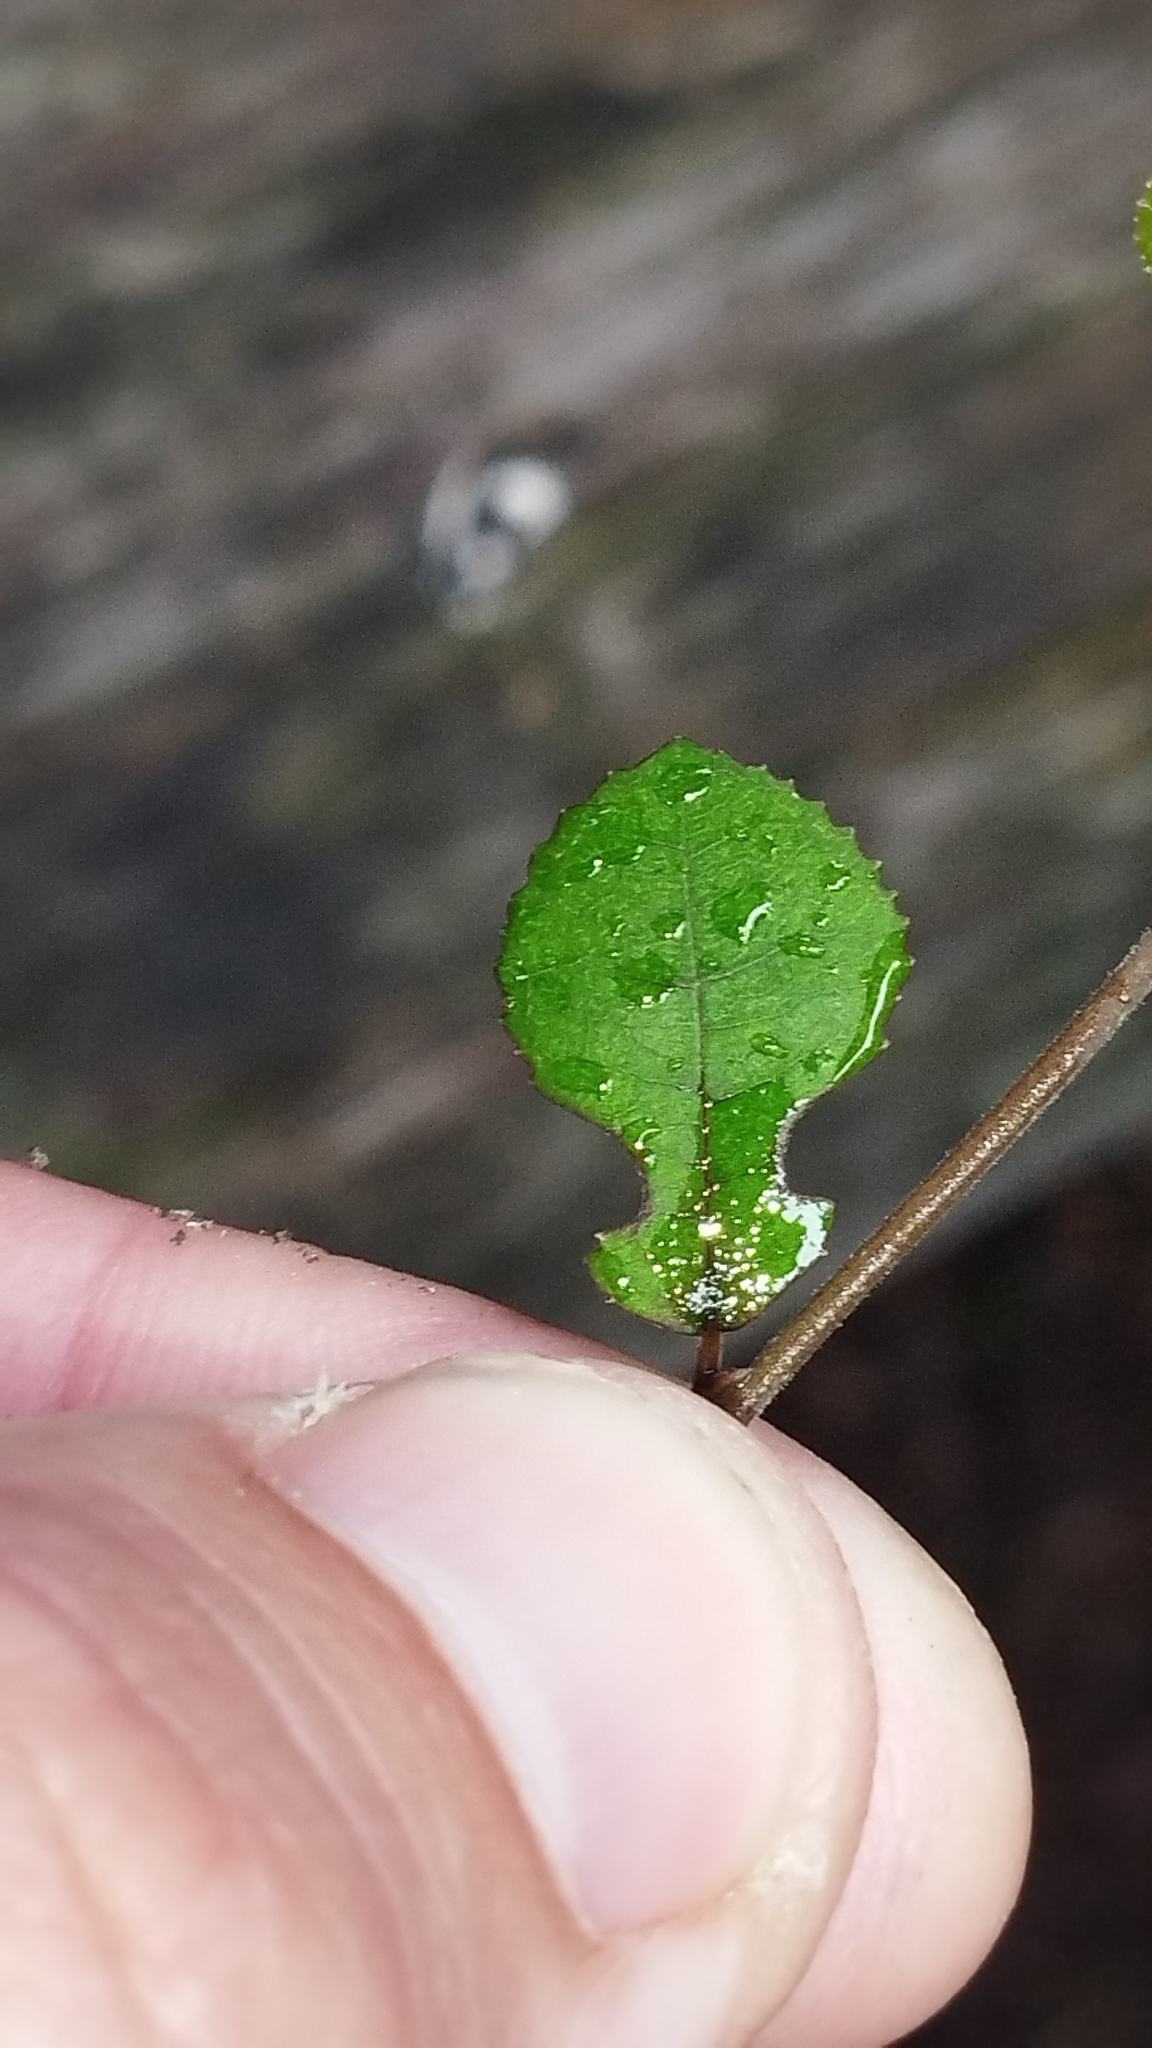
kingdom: Plantae
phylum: Tracheophyta
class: Magnoliopsida
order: Rosales
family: Moraceae
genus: Paratrophis
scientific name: Paratrophis microphylla
